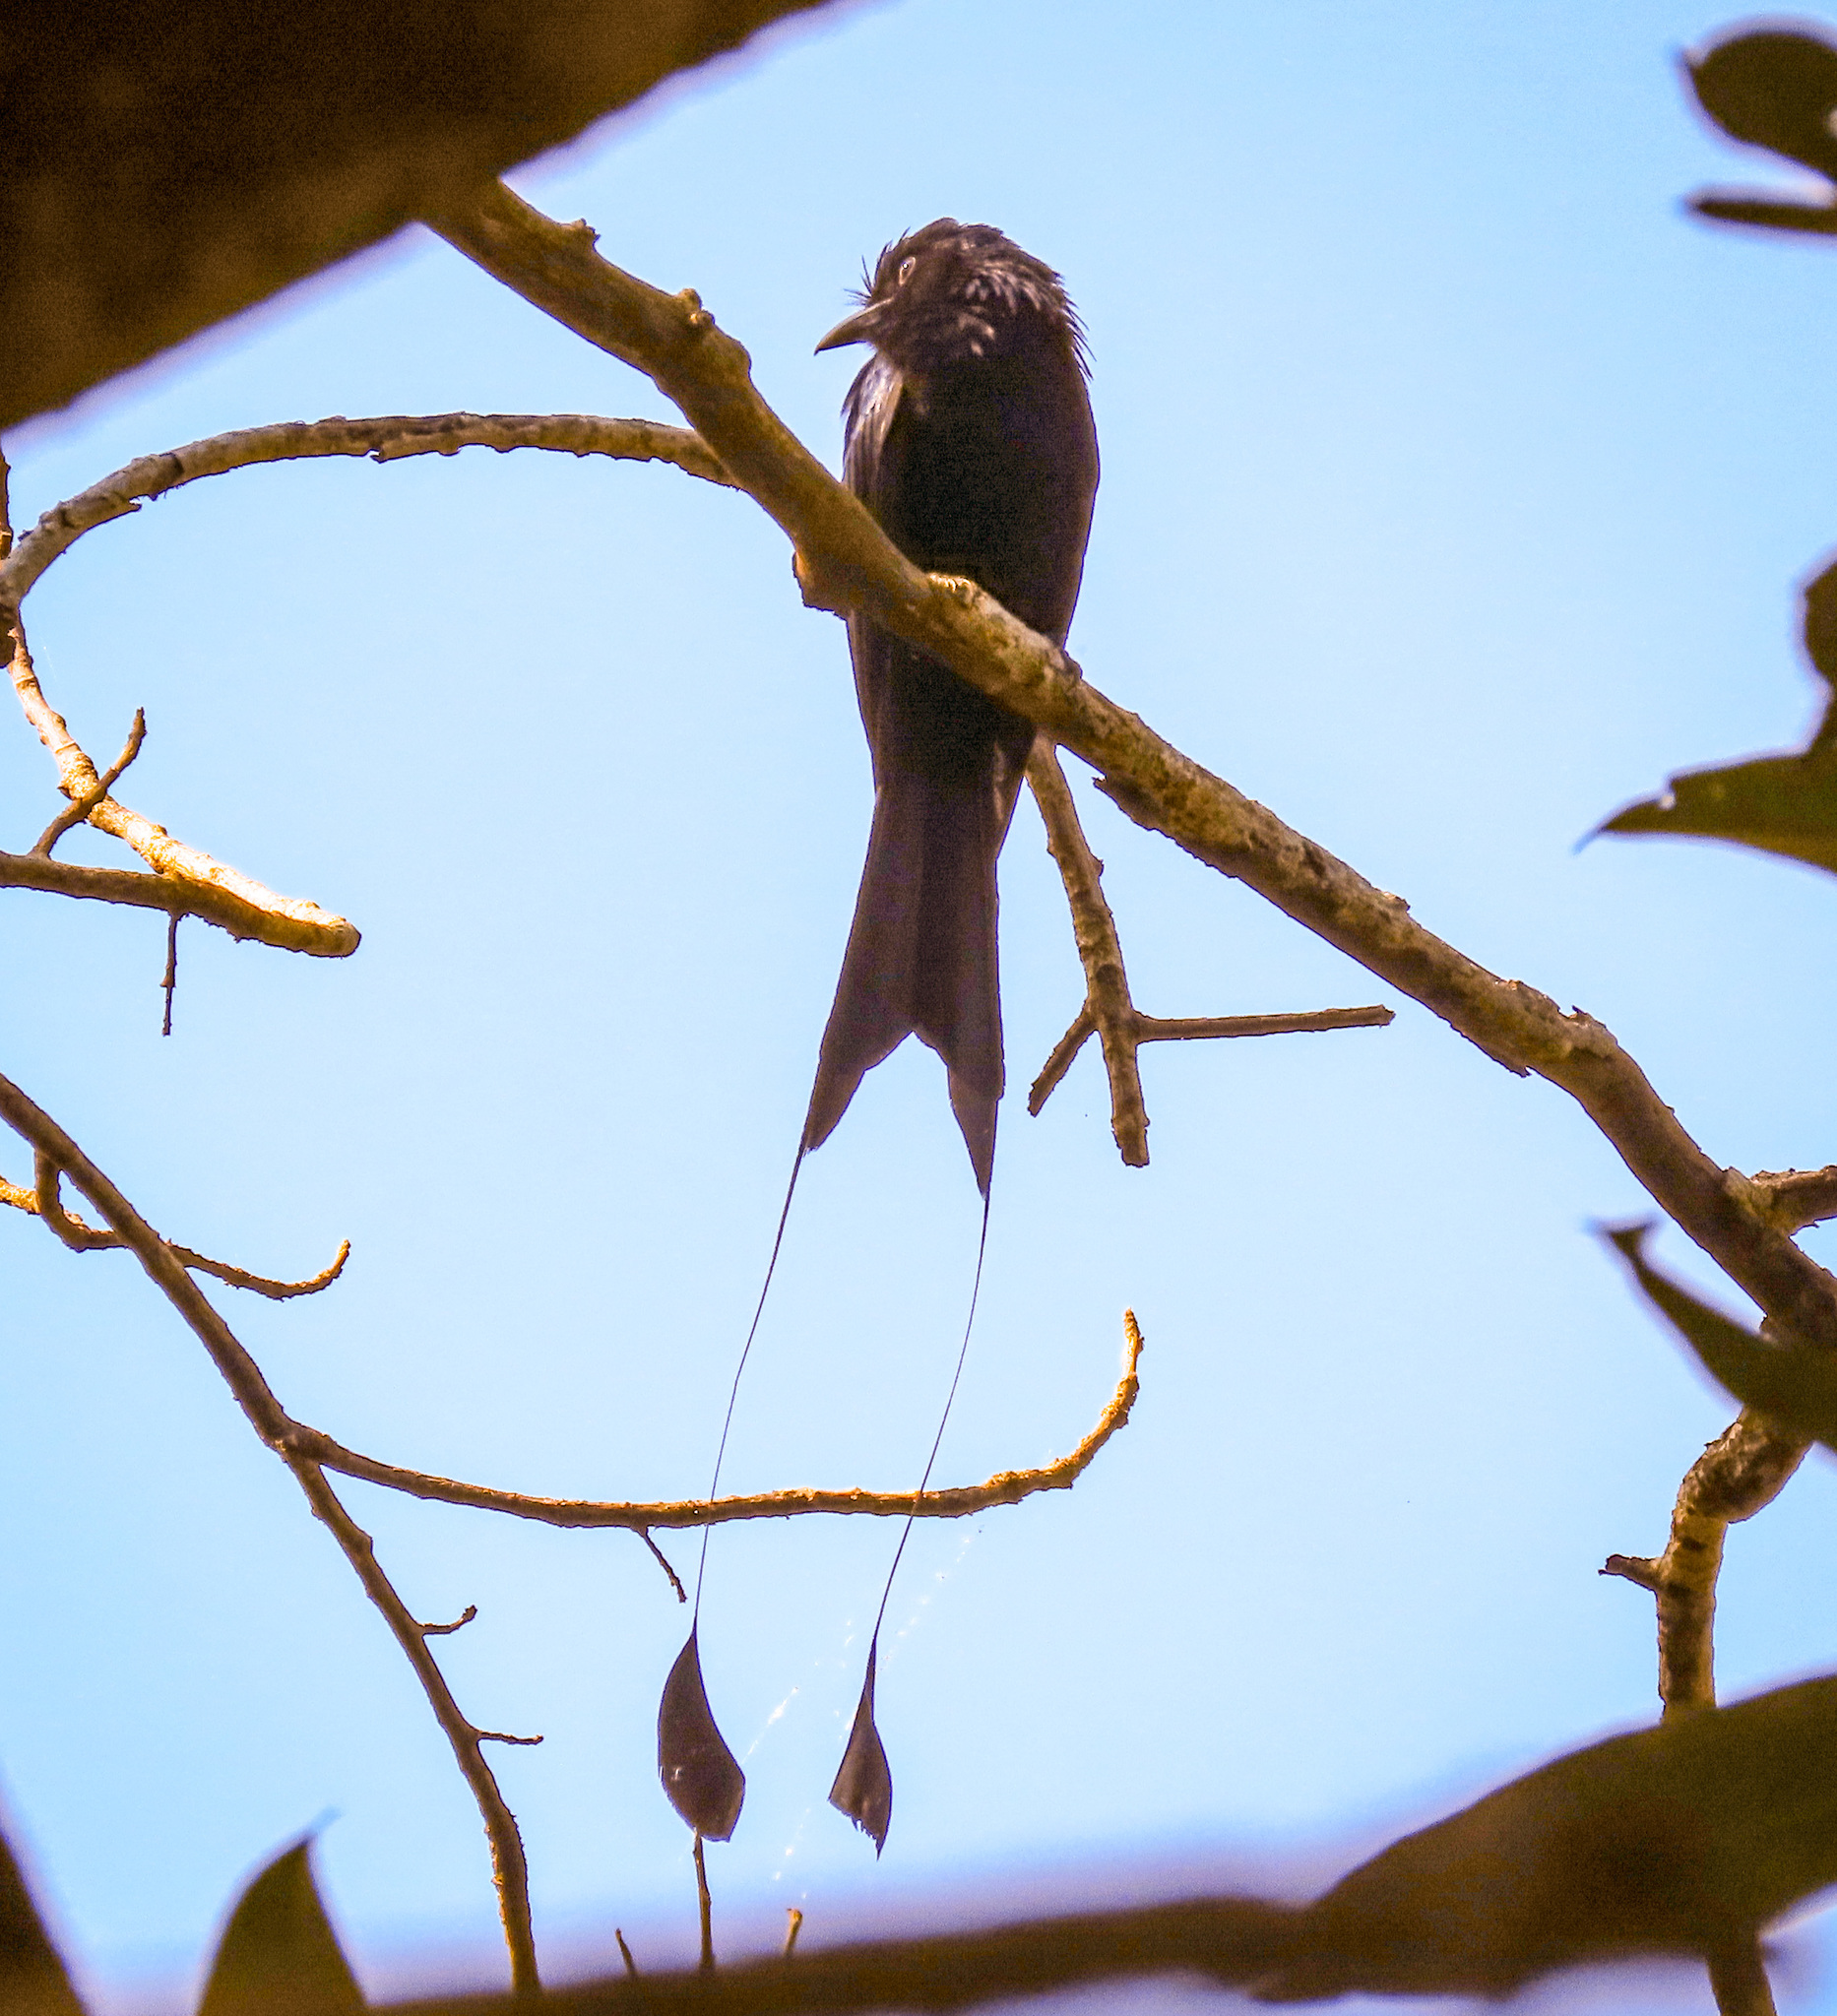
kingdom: Animalia
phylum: Chordata
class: Aves
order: Passeriformes
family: Dicruridae
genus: Dicrurus
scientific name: Dicrurus paradiseus
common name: Greater racket-tailed drongo
